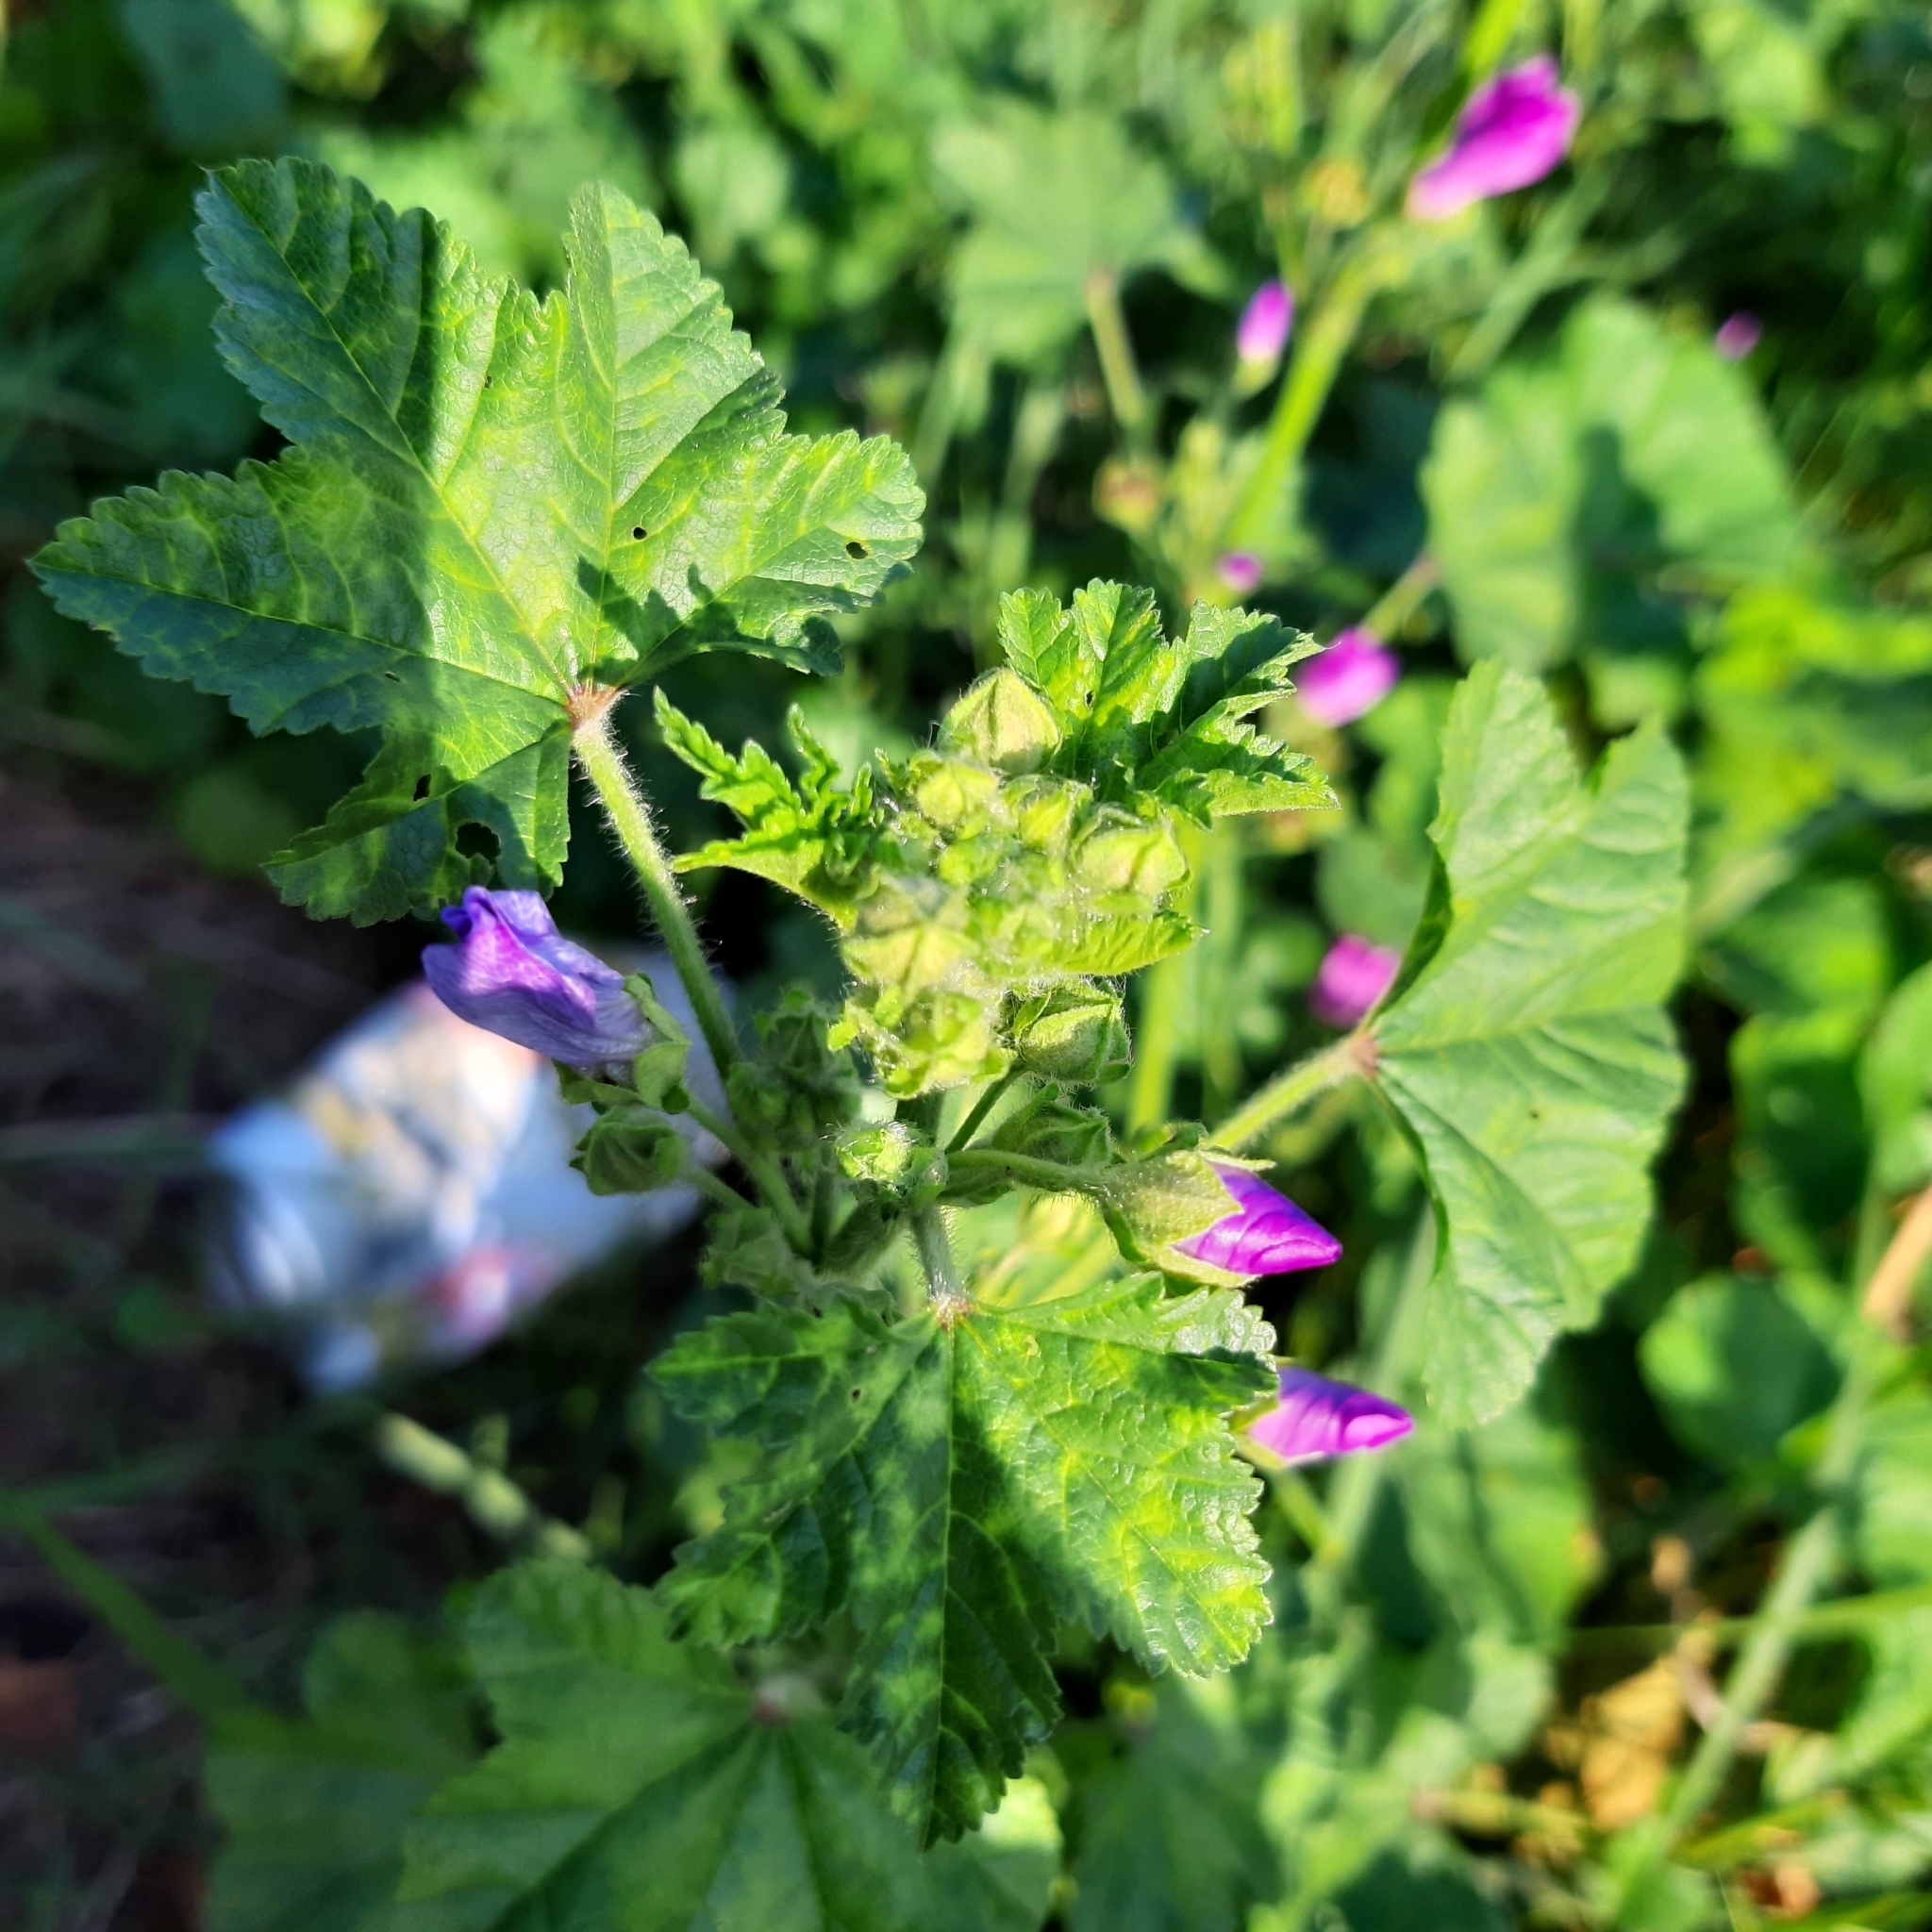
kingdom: Plantae
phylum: Tracheophyta
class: Magnoliopsida
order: Malvales
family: Malvaceae
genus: Malva
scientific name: Malva sylvestris
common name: Common mallow
